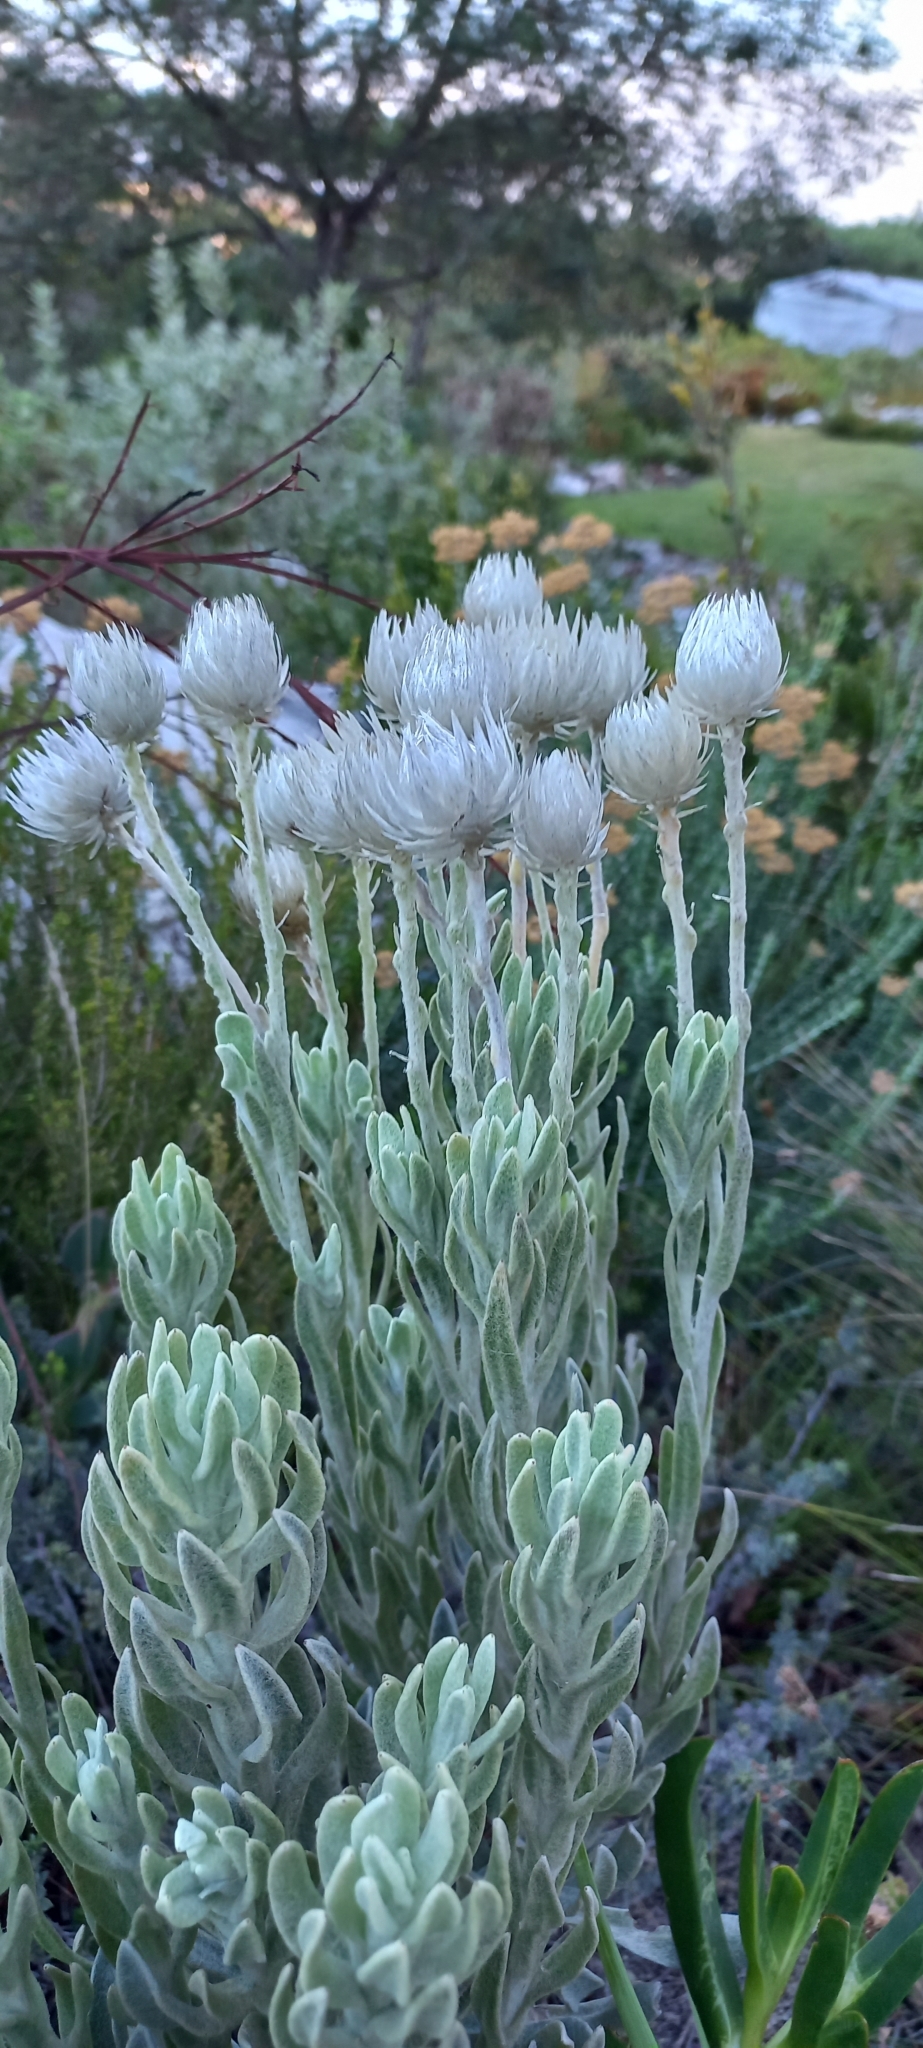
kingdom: Plantae
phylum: Tracheophyta
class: Magnoliopsida
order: Asterales
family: Asteraceae
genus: Syncarpha
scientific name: Syncarpha vestita
